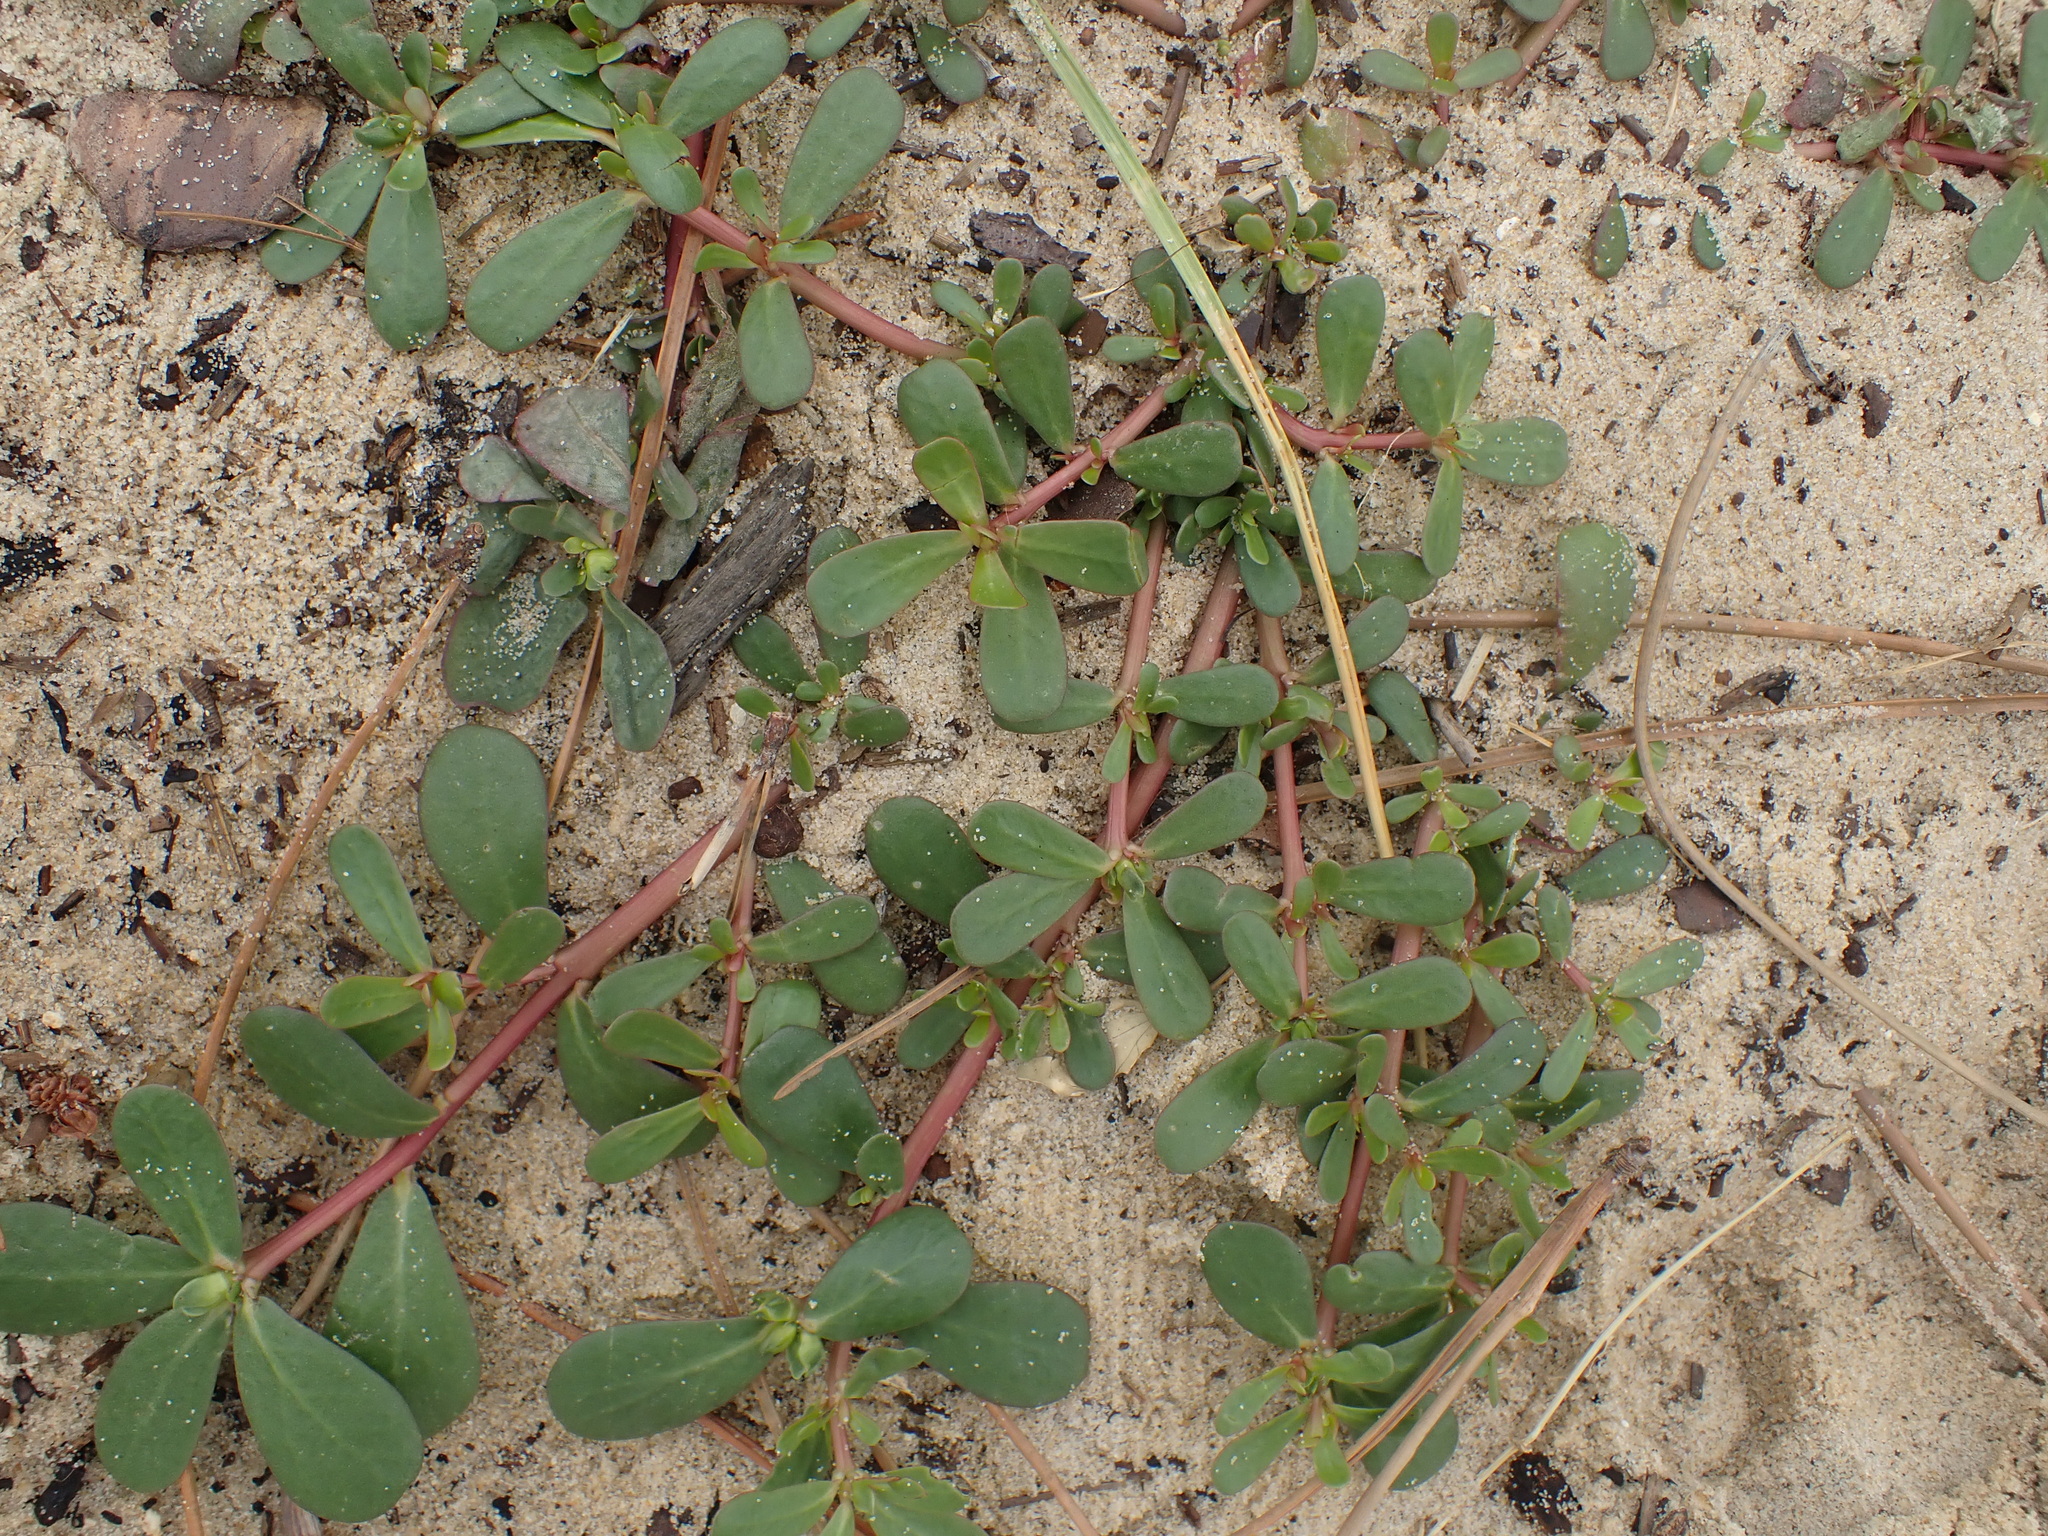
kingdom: Plantae
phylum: Tracheophyta
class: Magnoliopsida
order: Caryophyllales
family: Portulacaceae
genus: Portulaca
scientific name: Portulaca oleracea
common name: Common purslane
